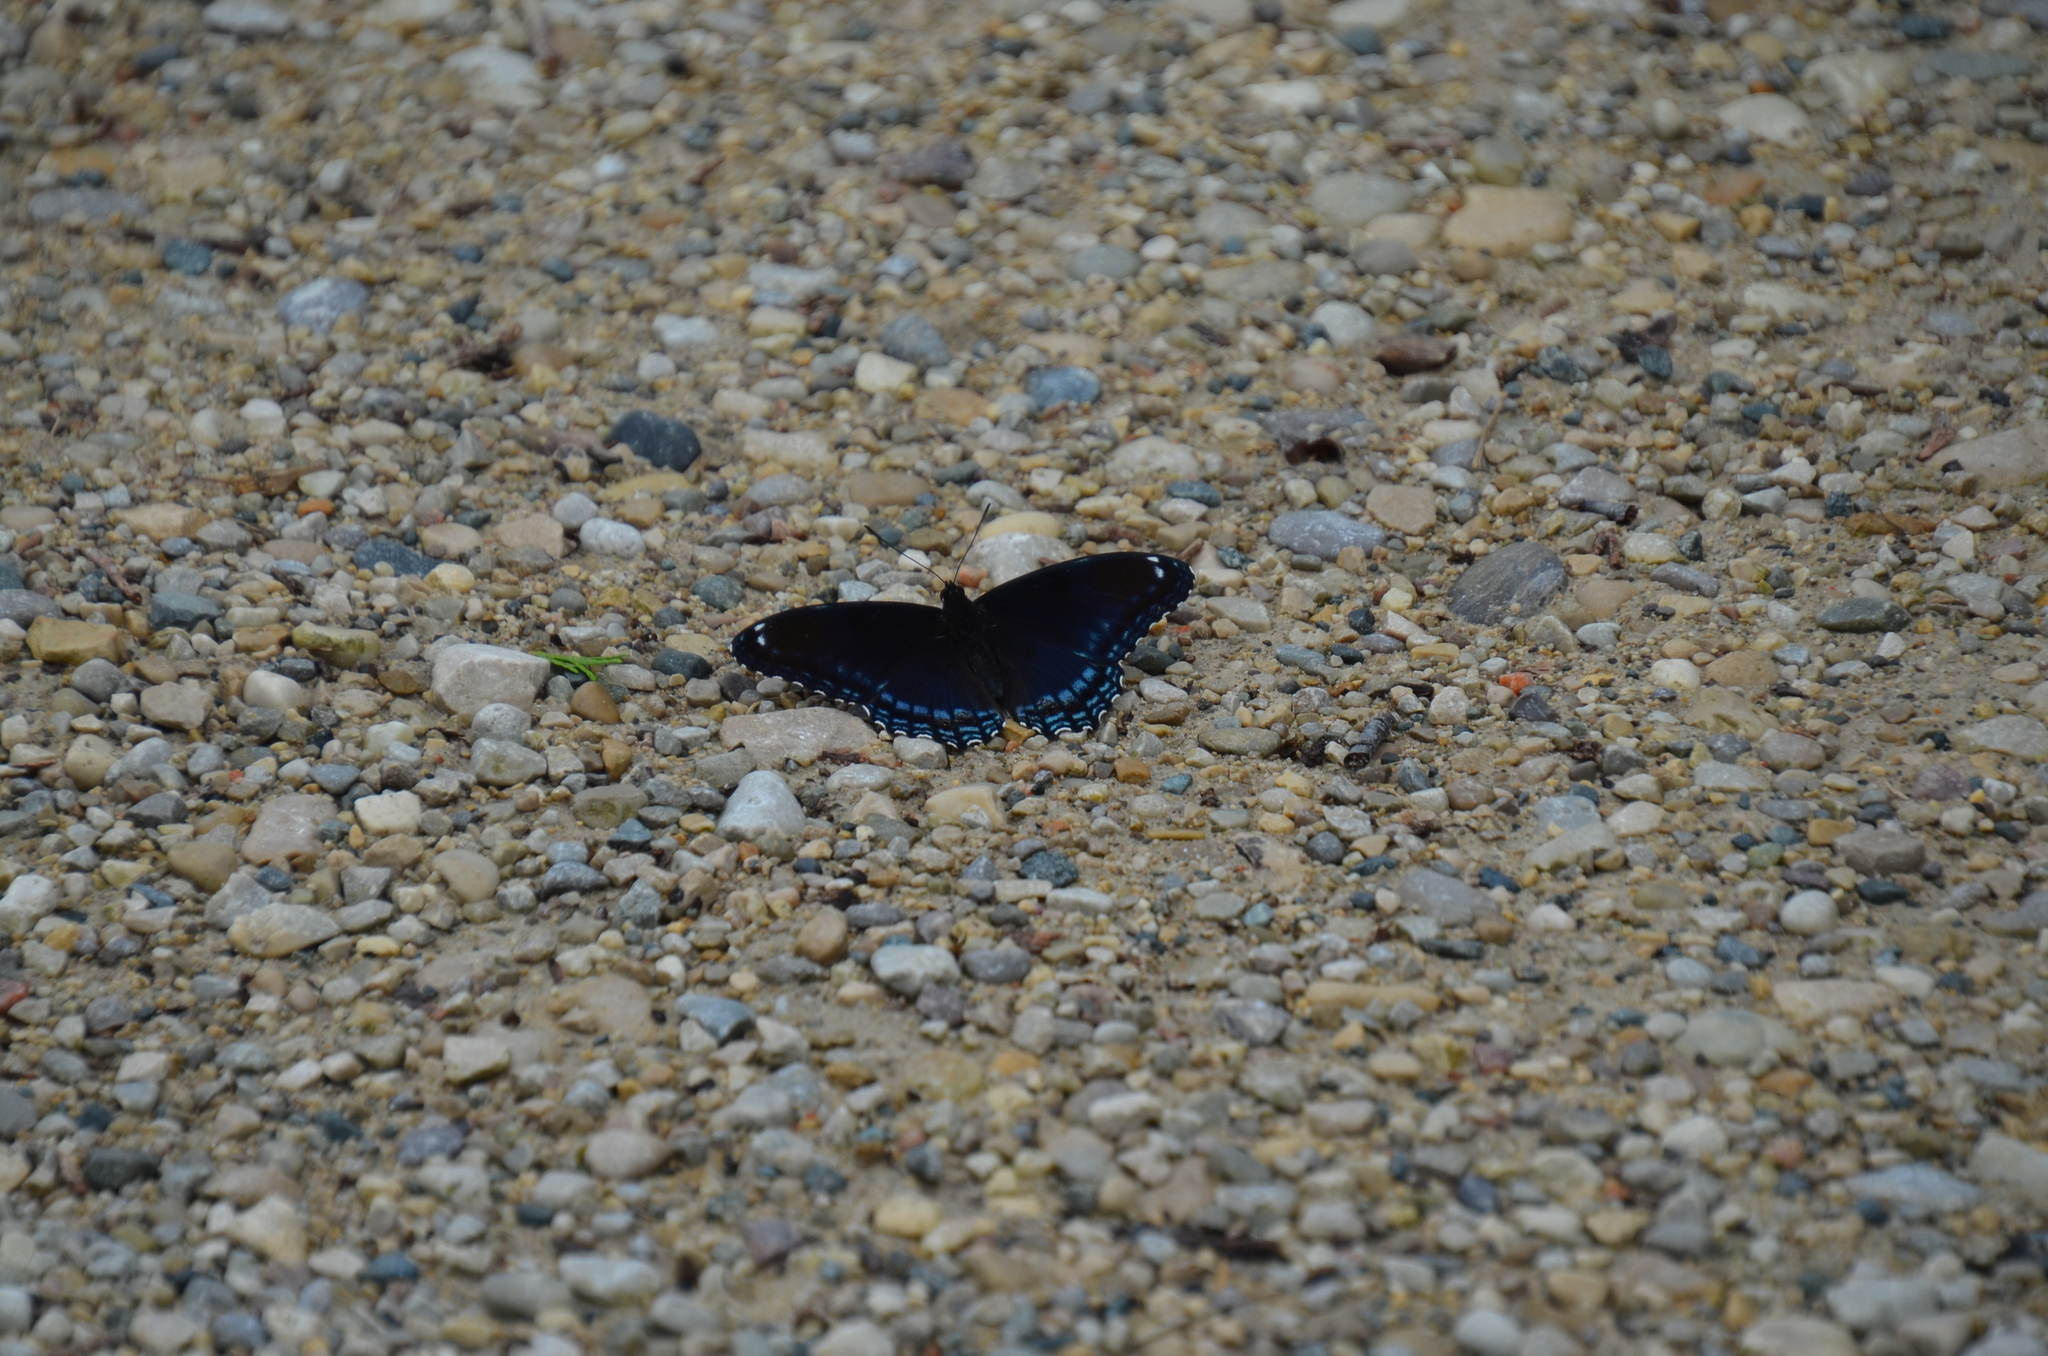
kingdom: Animalia
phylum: Arthropoda
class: Insecta
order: Lepidoptera
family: Nymphalidae
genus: Limenitis
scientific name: Limenitis astyanax
